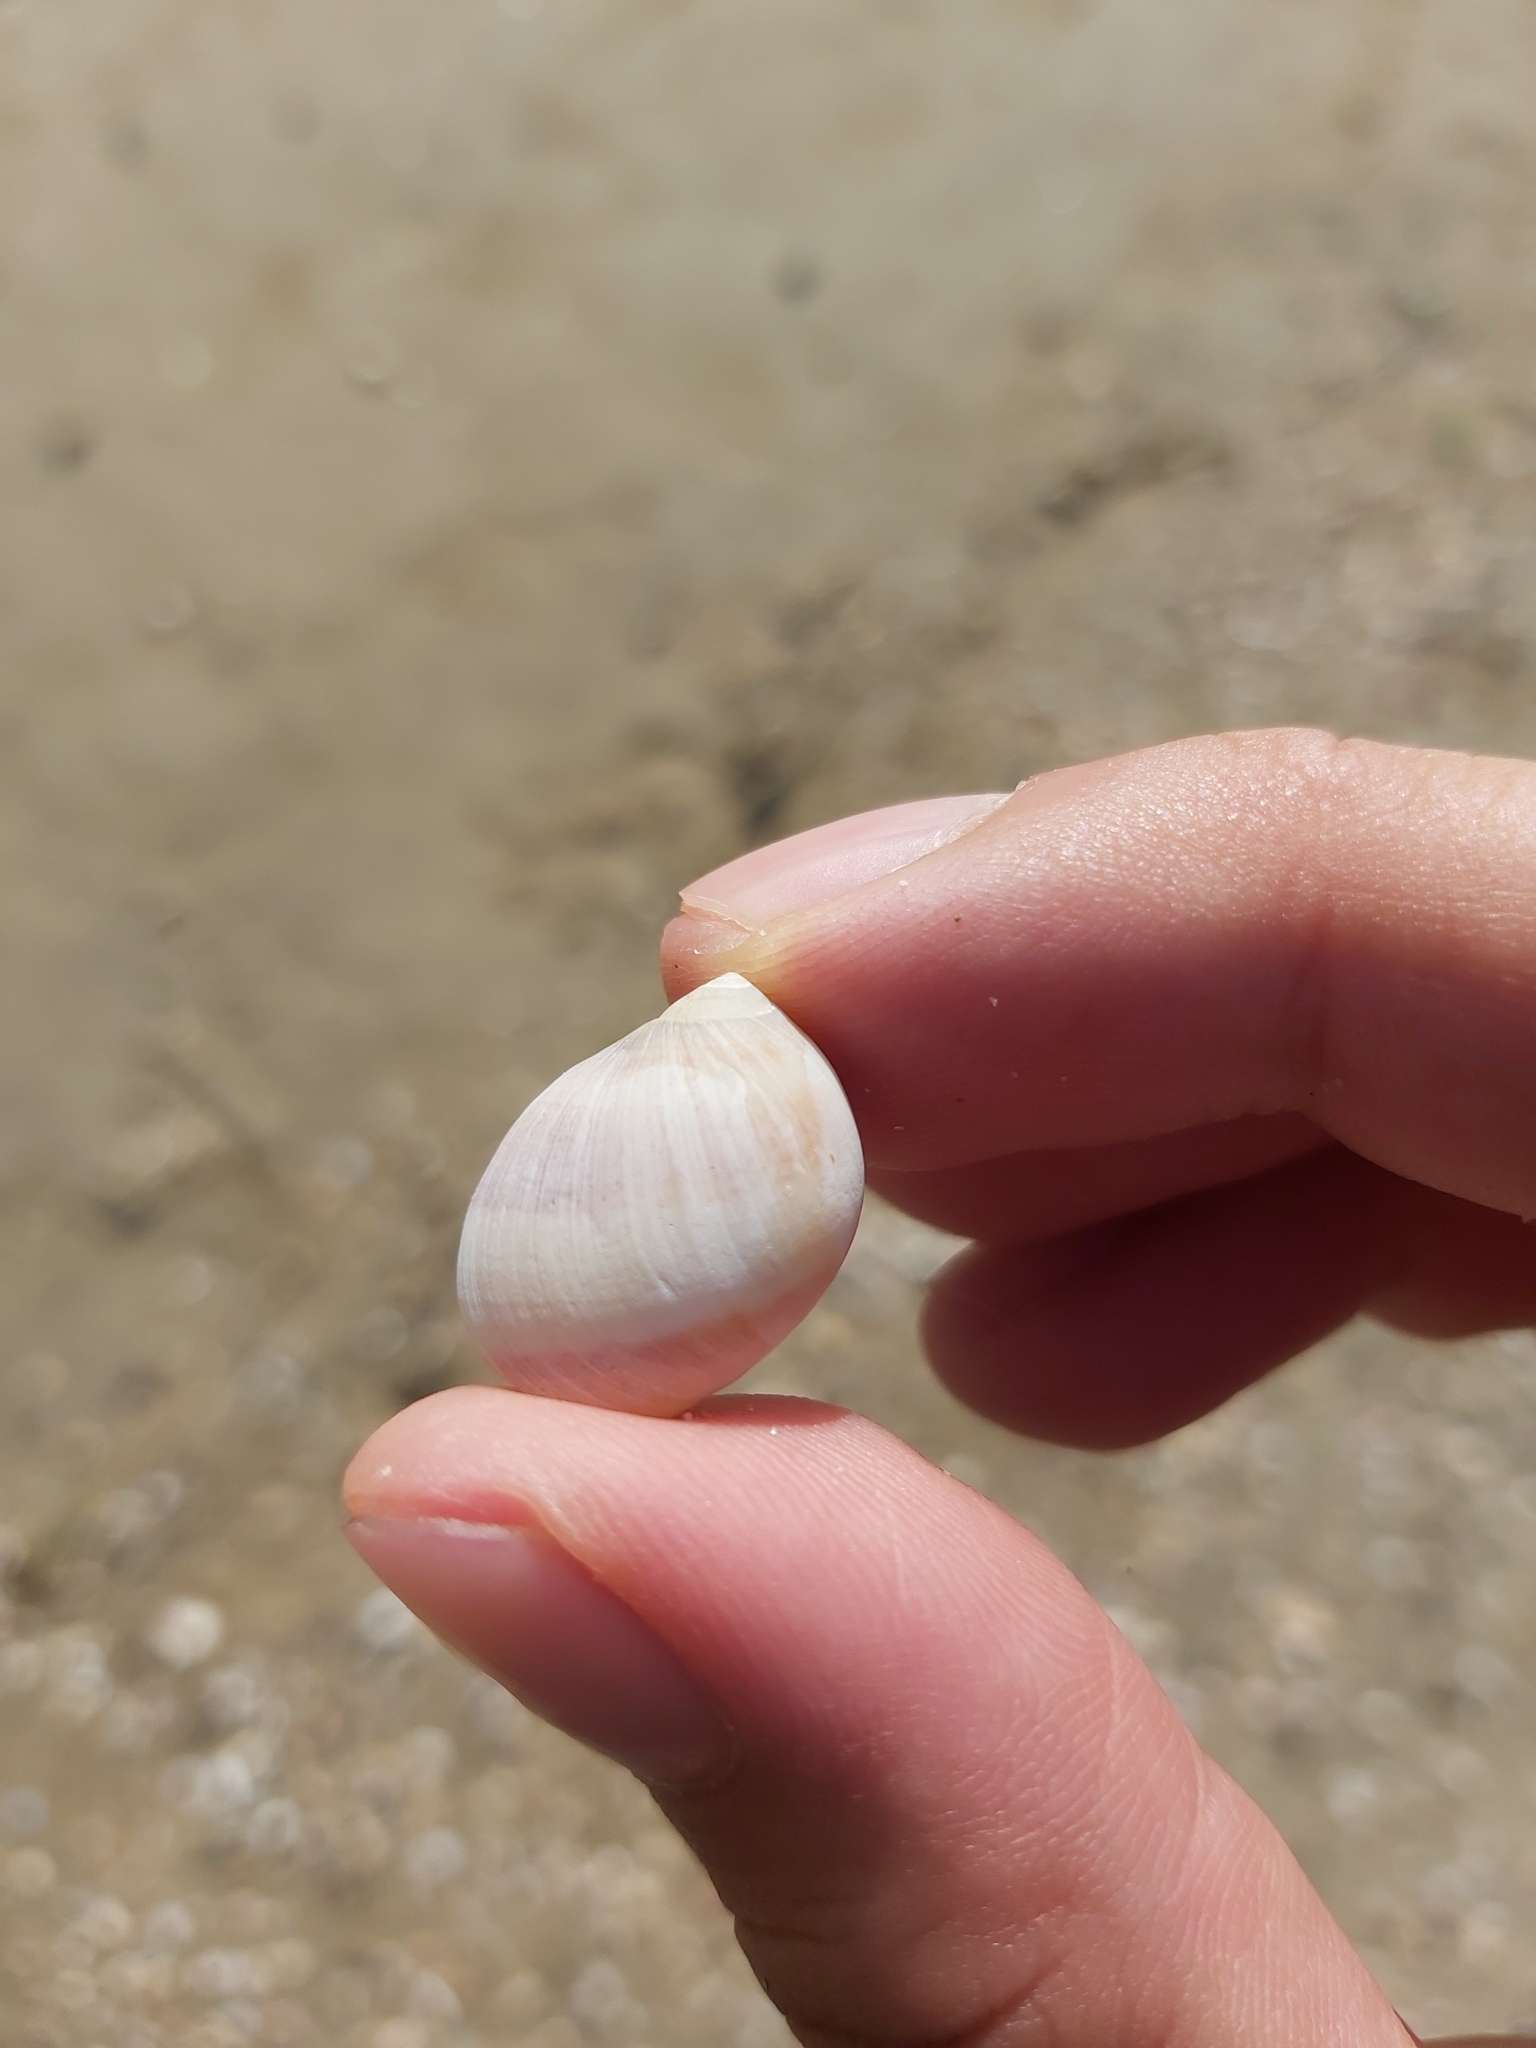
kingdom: Animalia
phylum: Mollusca
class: Gastropoda
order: Littorinimorpha
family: Naticidae
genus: Mammilla
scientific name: Mammilla fibrosa
